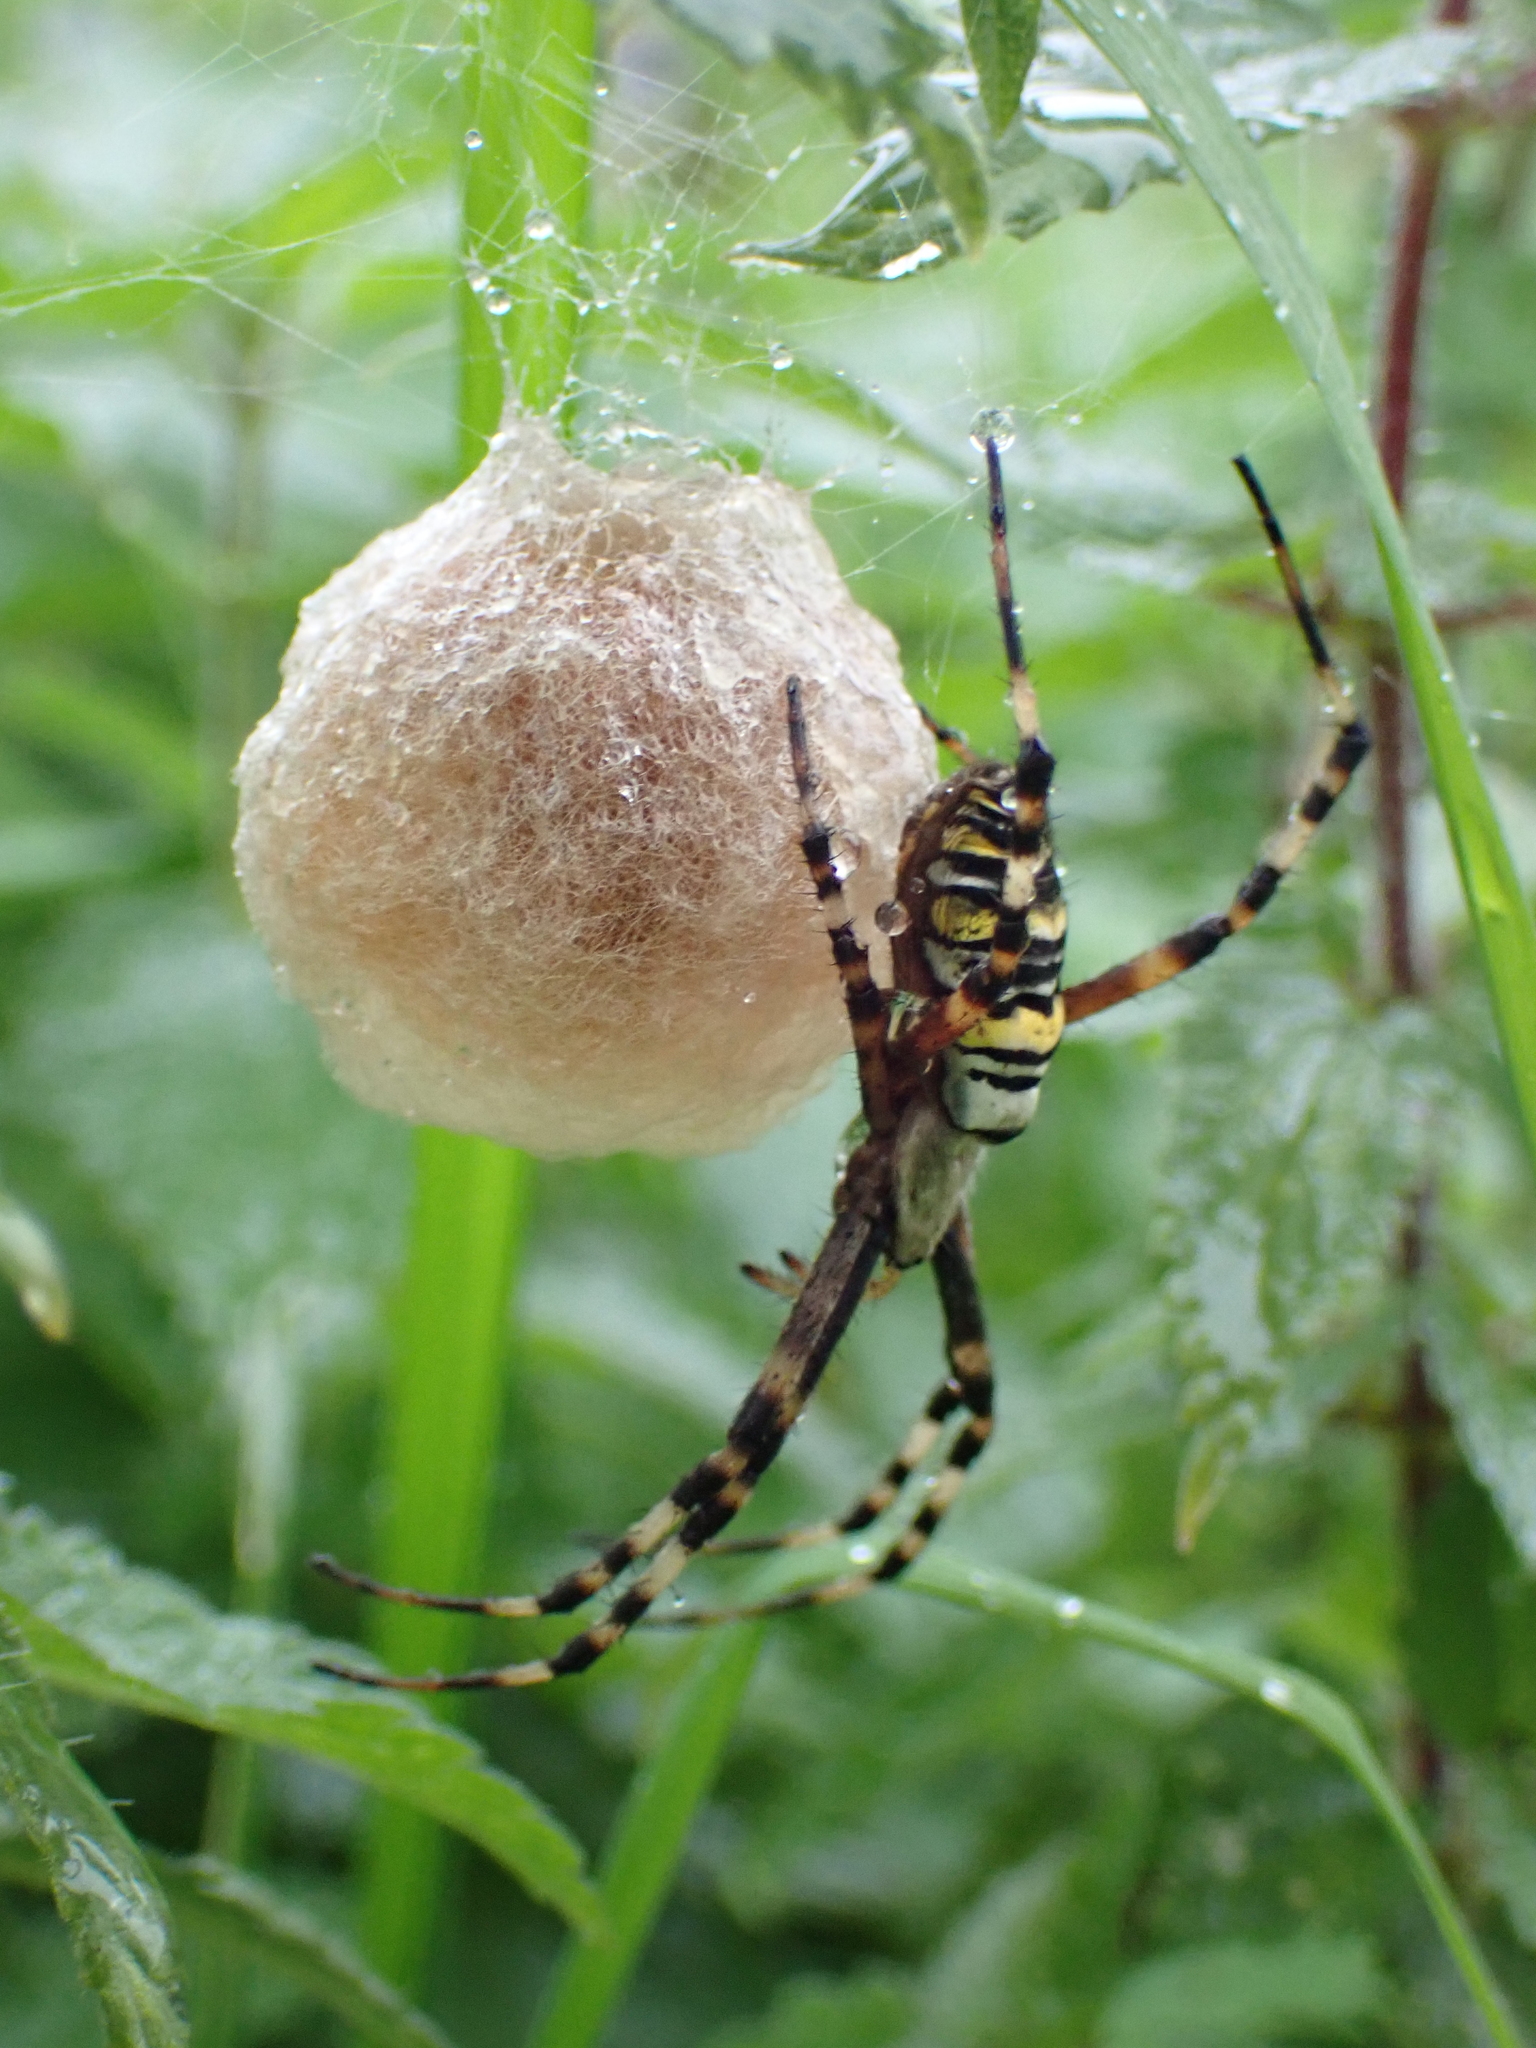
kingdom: Animalia
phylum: Arthropoda
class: Arachnida
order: Araneae
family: Araneidae
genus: Argiope
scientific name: Argiope bruennichi
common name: Wasp spider
